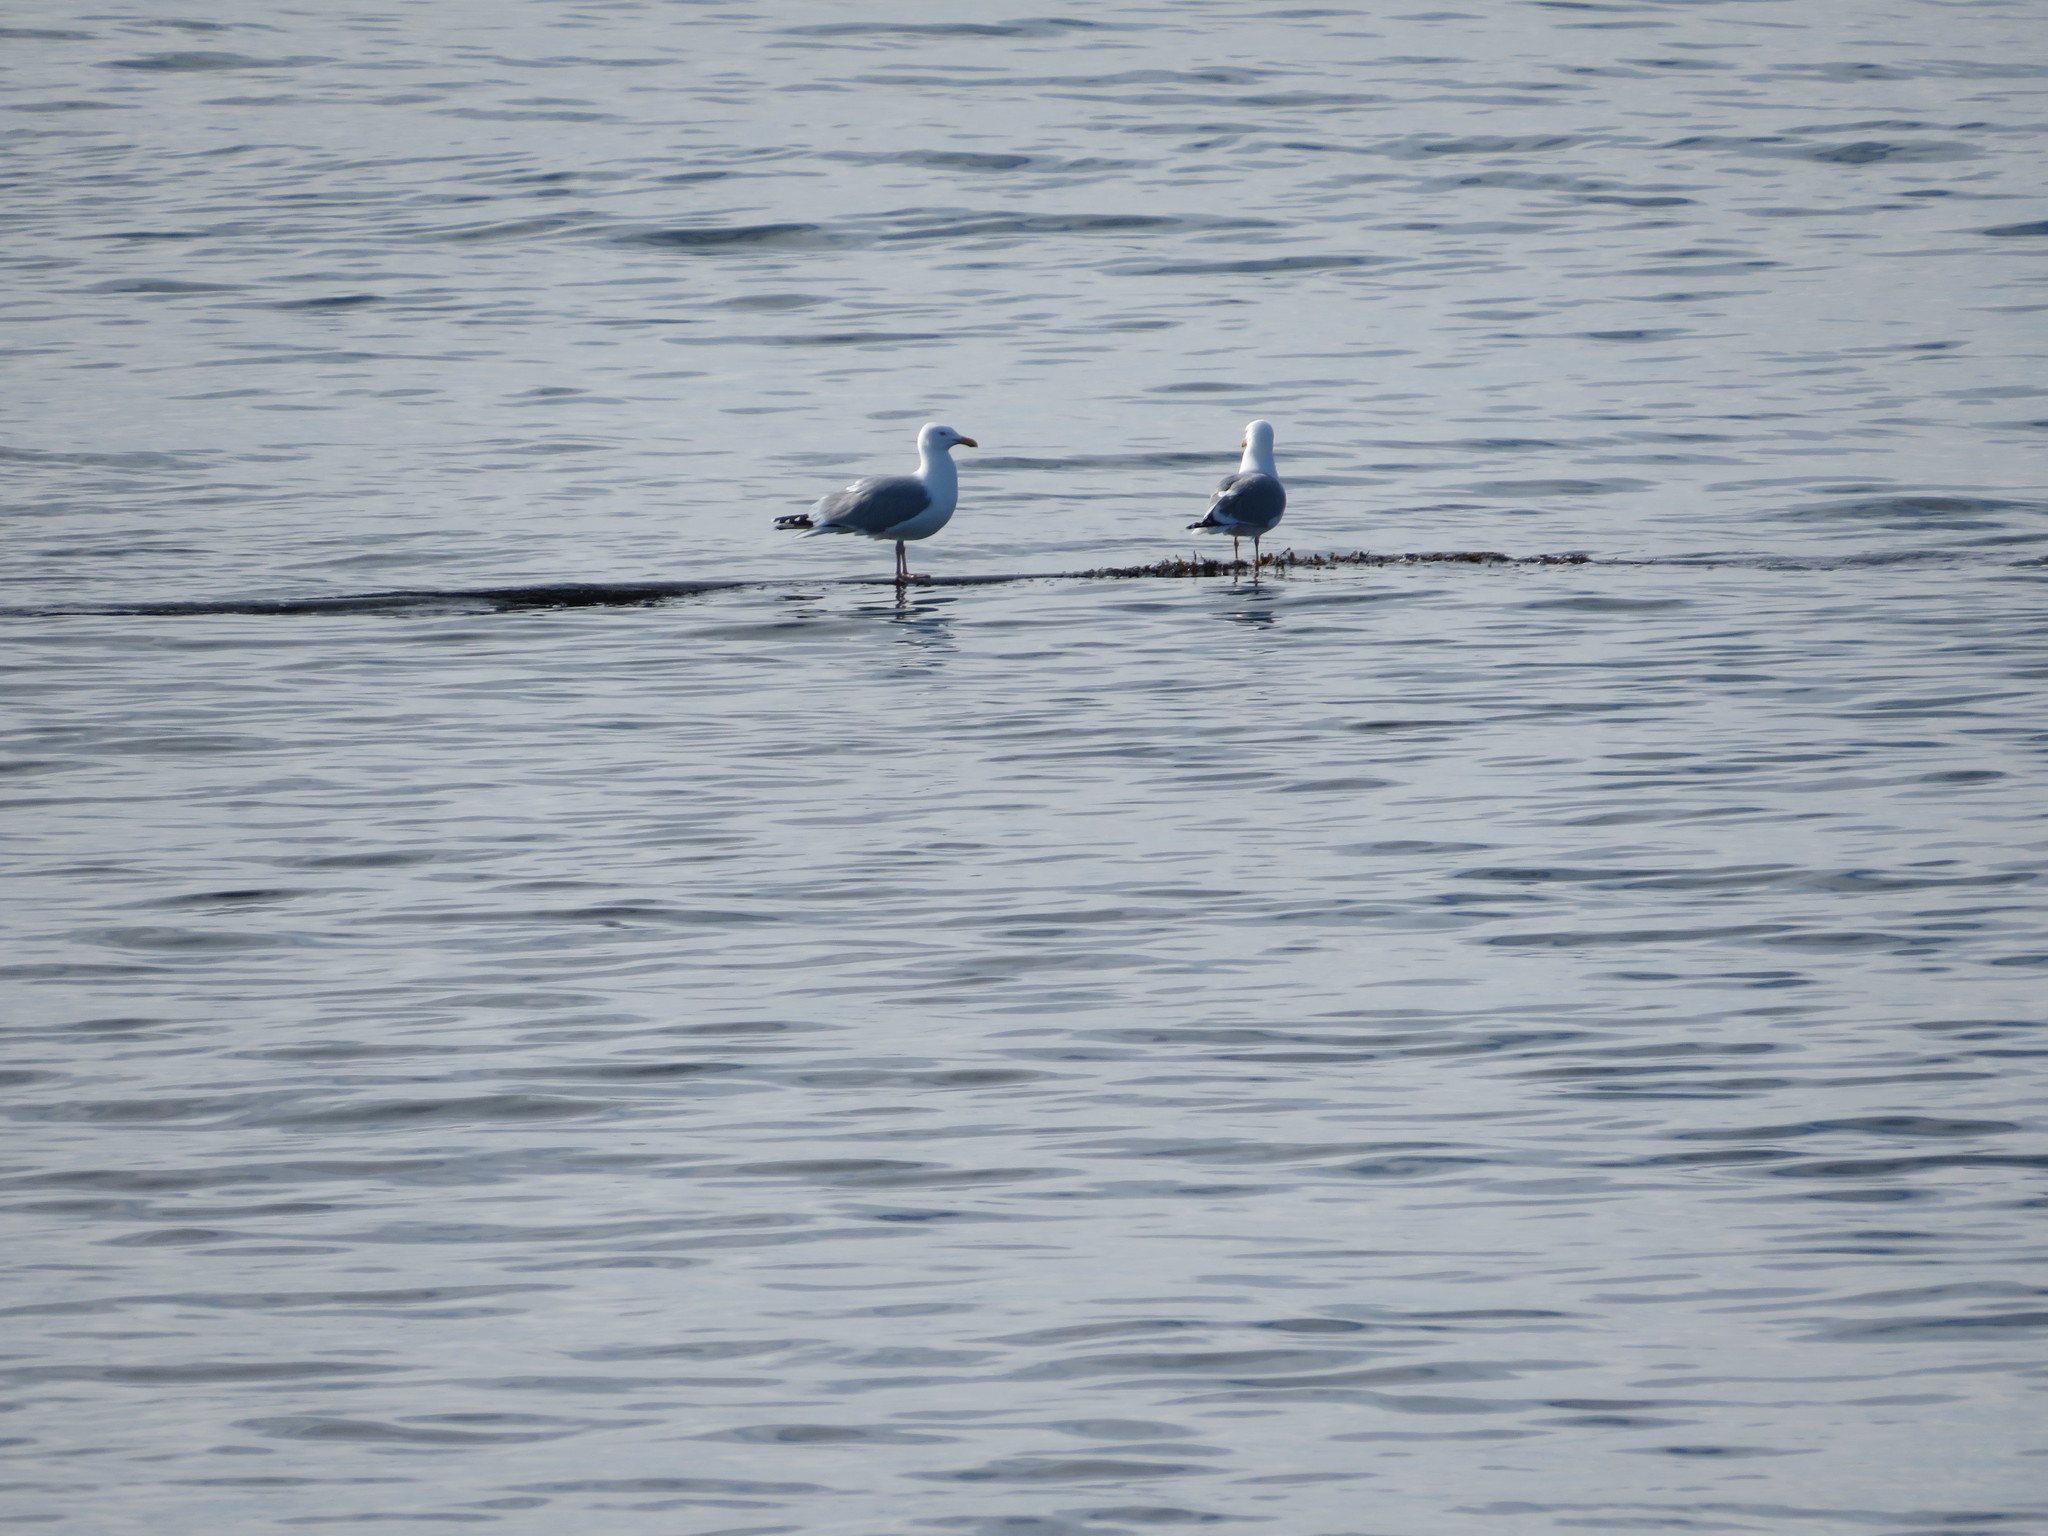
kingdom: Animalia
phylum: Chordata
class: Aves
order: Charadriiformes
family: Laridae
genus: Larus
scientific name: Larus argentatus
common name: Herring gull
